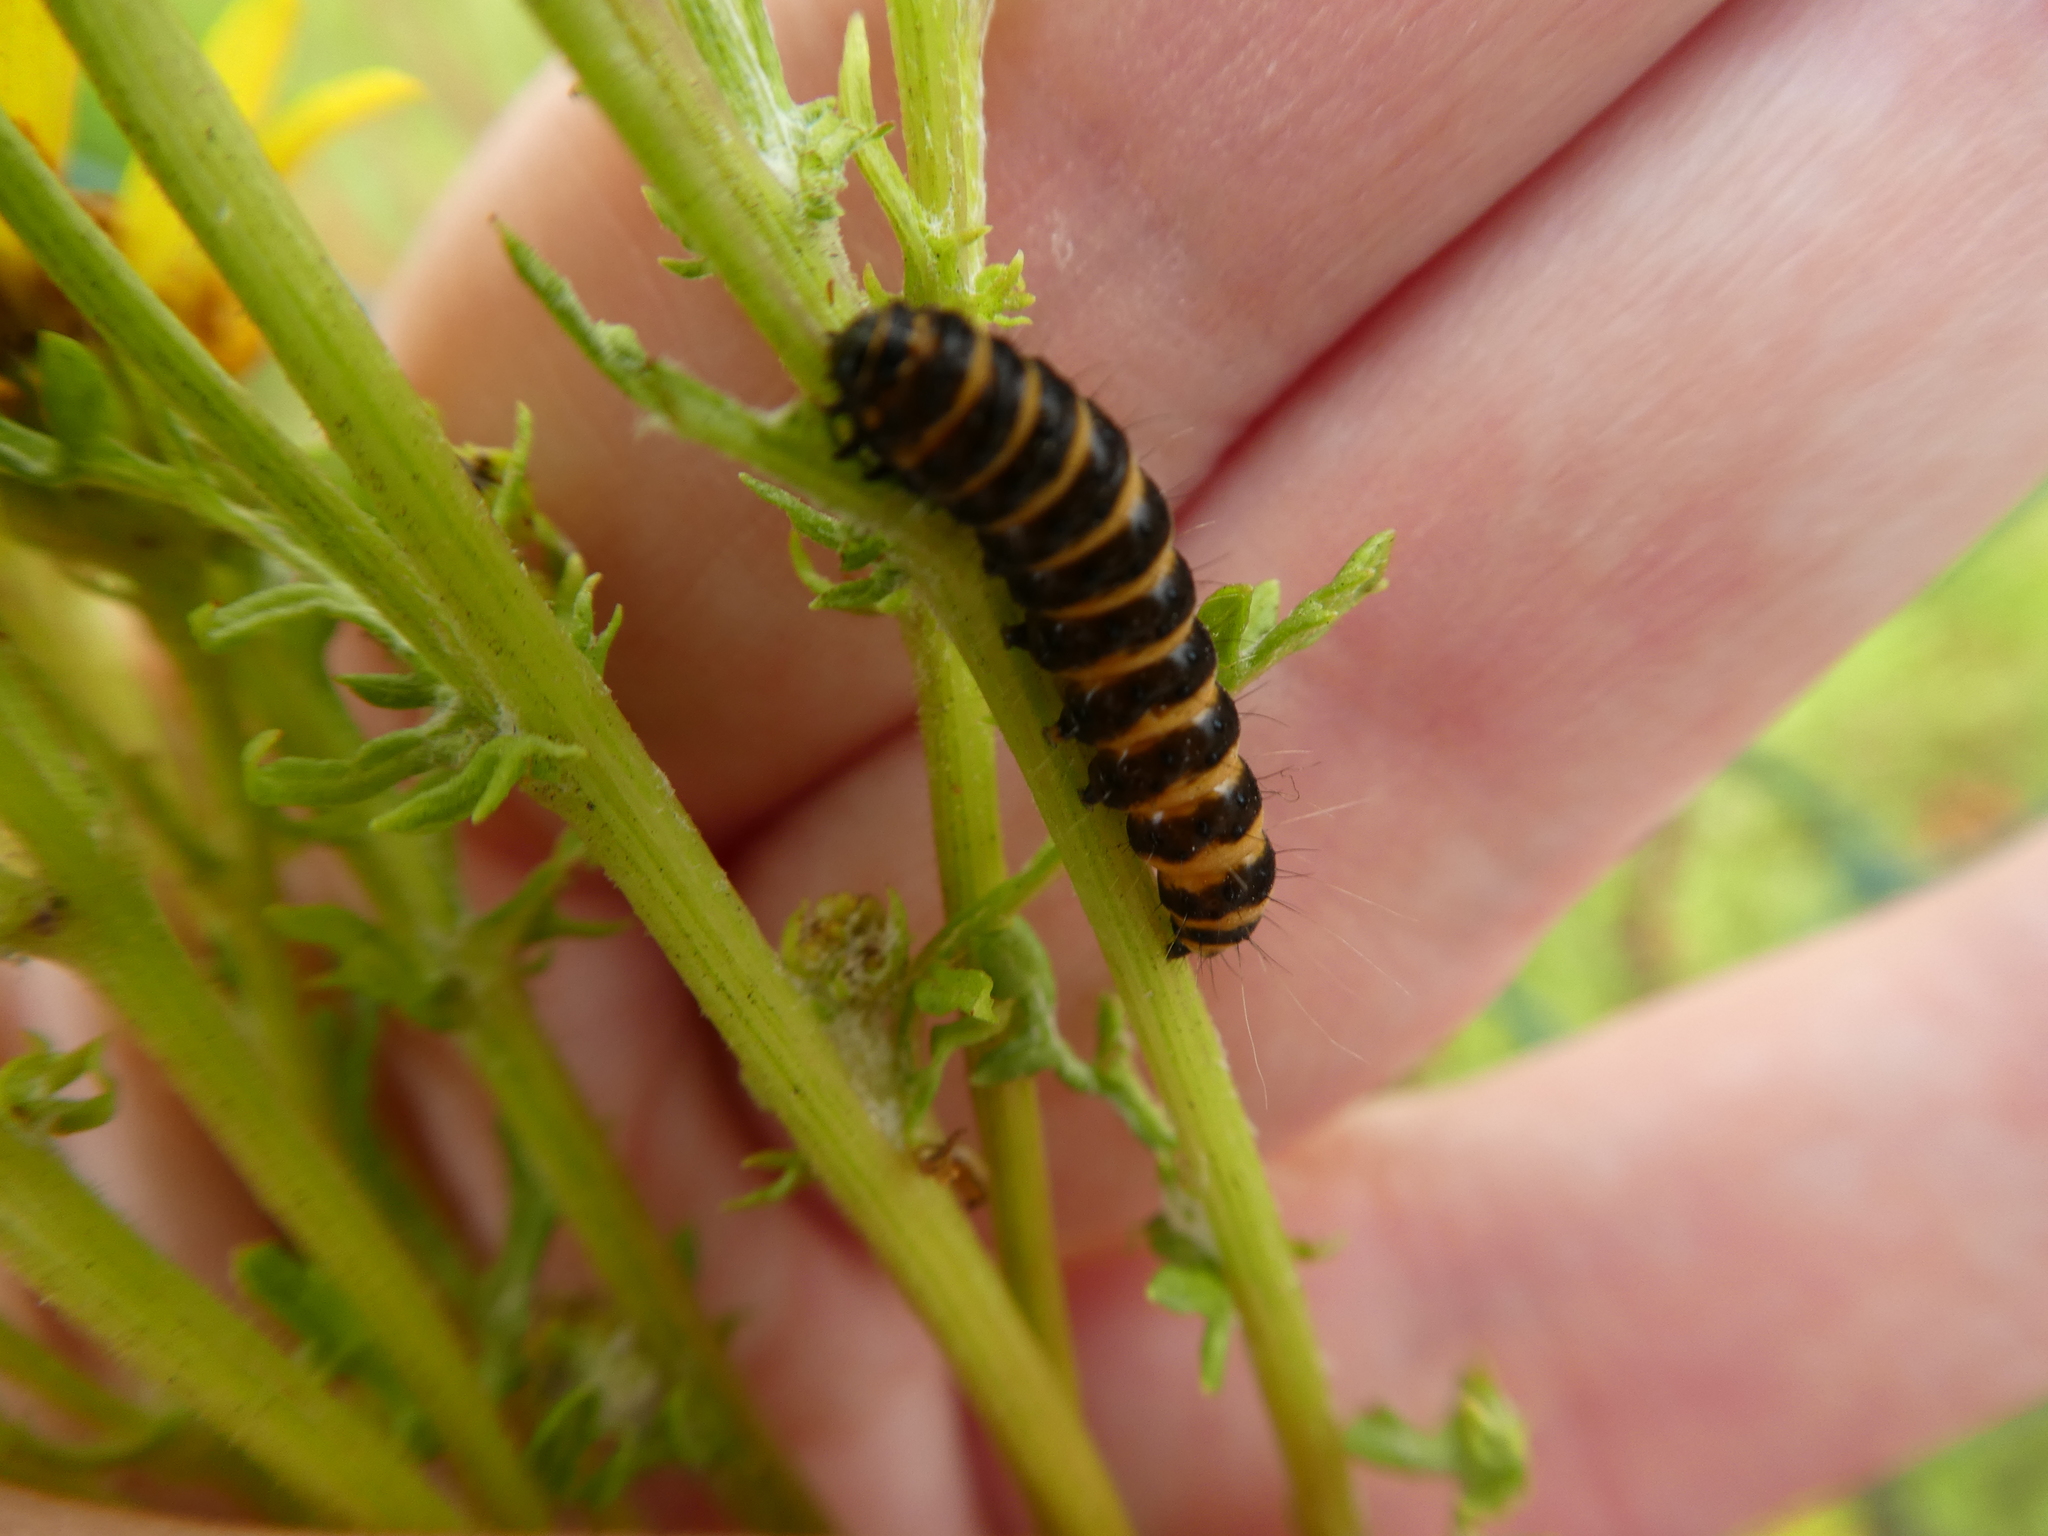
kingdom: Animalia
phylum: Arthropoda
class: Insecta
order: Lepidoptera
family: Erebidae
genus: Tyria
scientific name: Tyria jacobaeae
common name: Cinnabar
